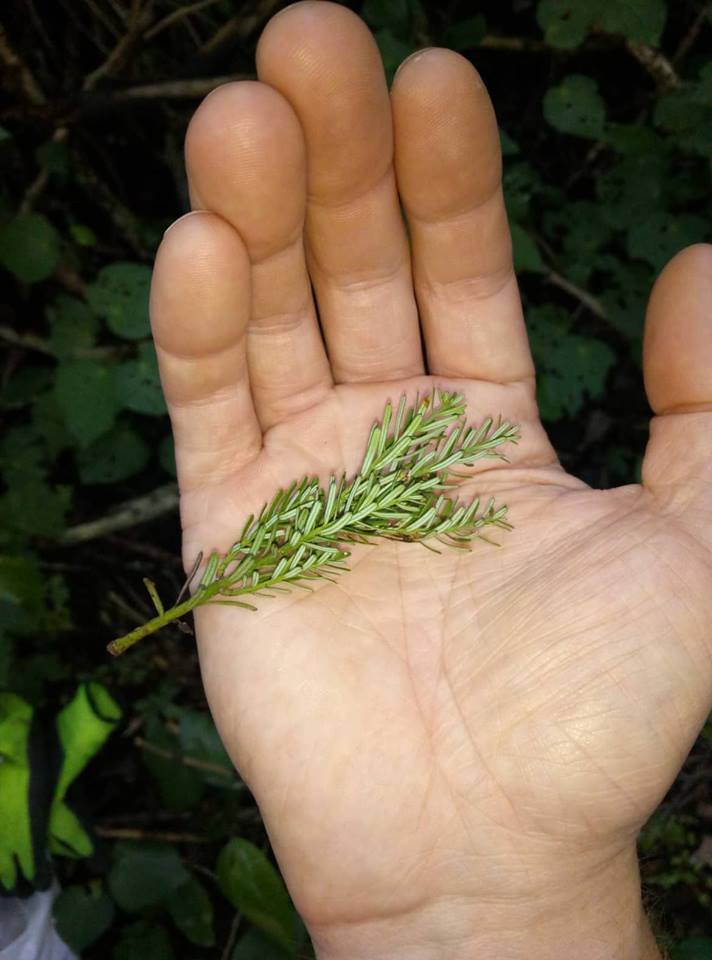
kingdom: Plantae
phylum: Tracheophyta
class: Pinopsida
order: Pinales
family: Podocarpaceae
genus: Prumnopitys
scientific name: Prumnopitys taxifolia
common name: Matai
